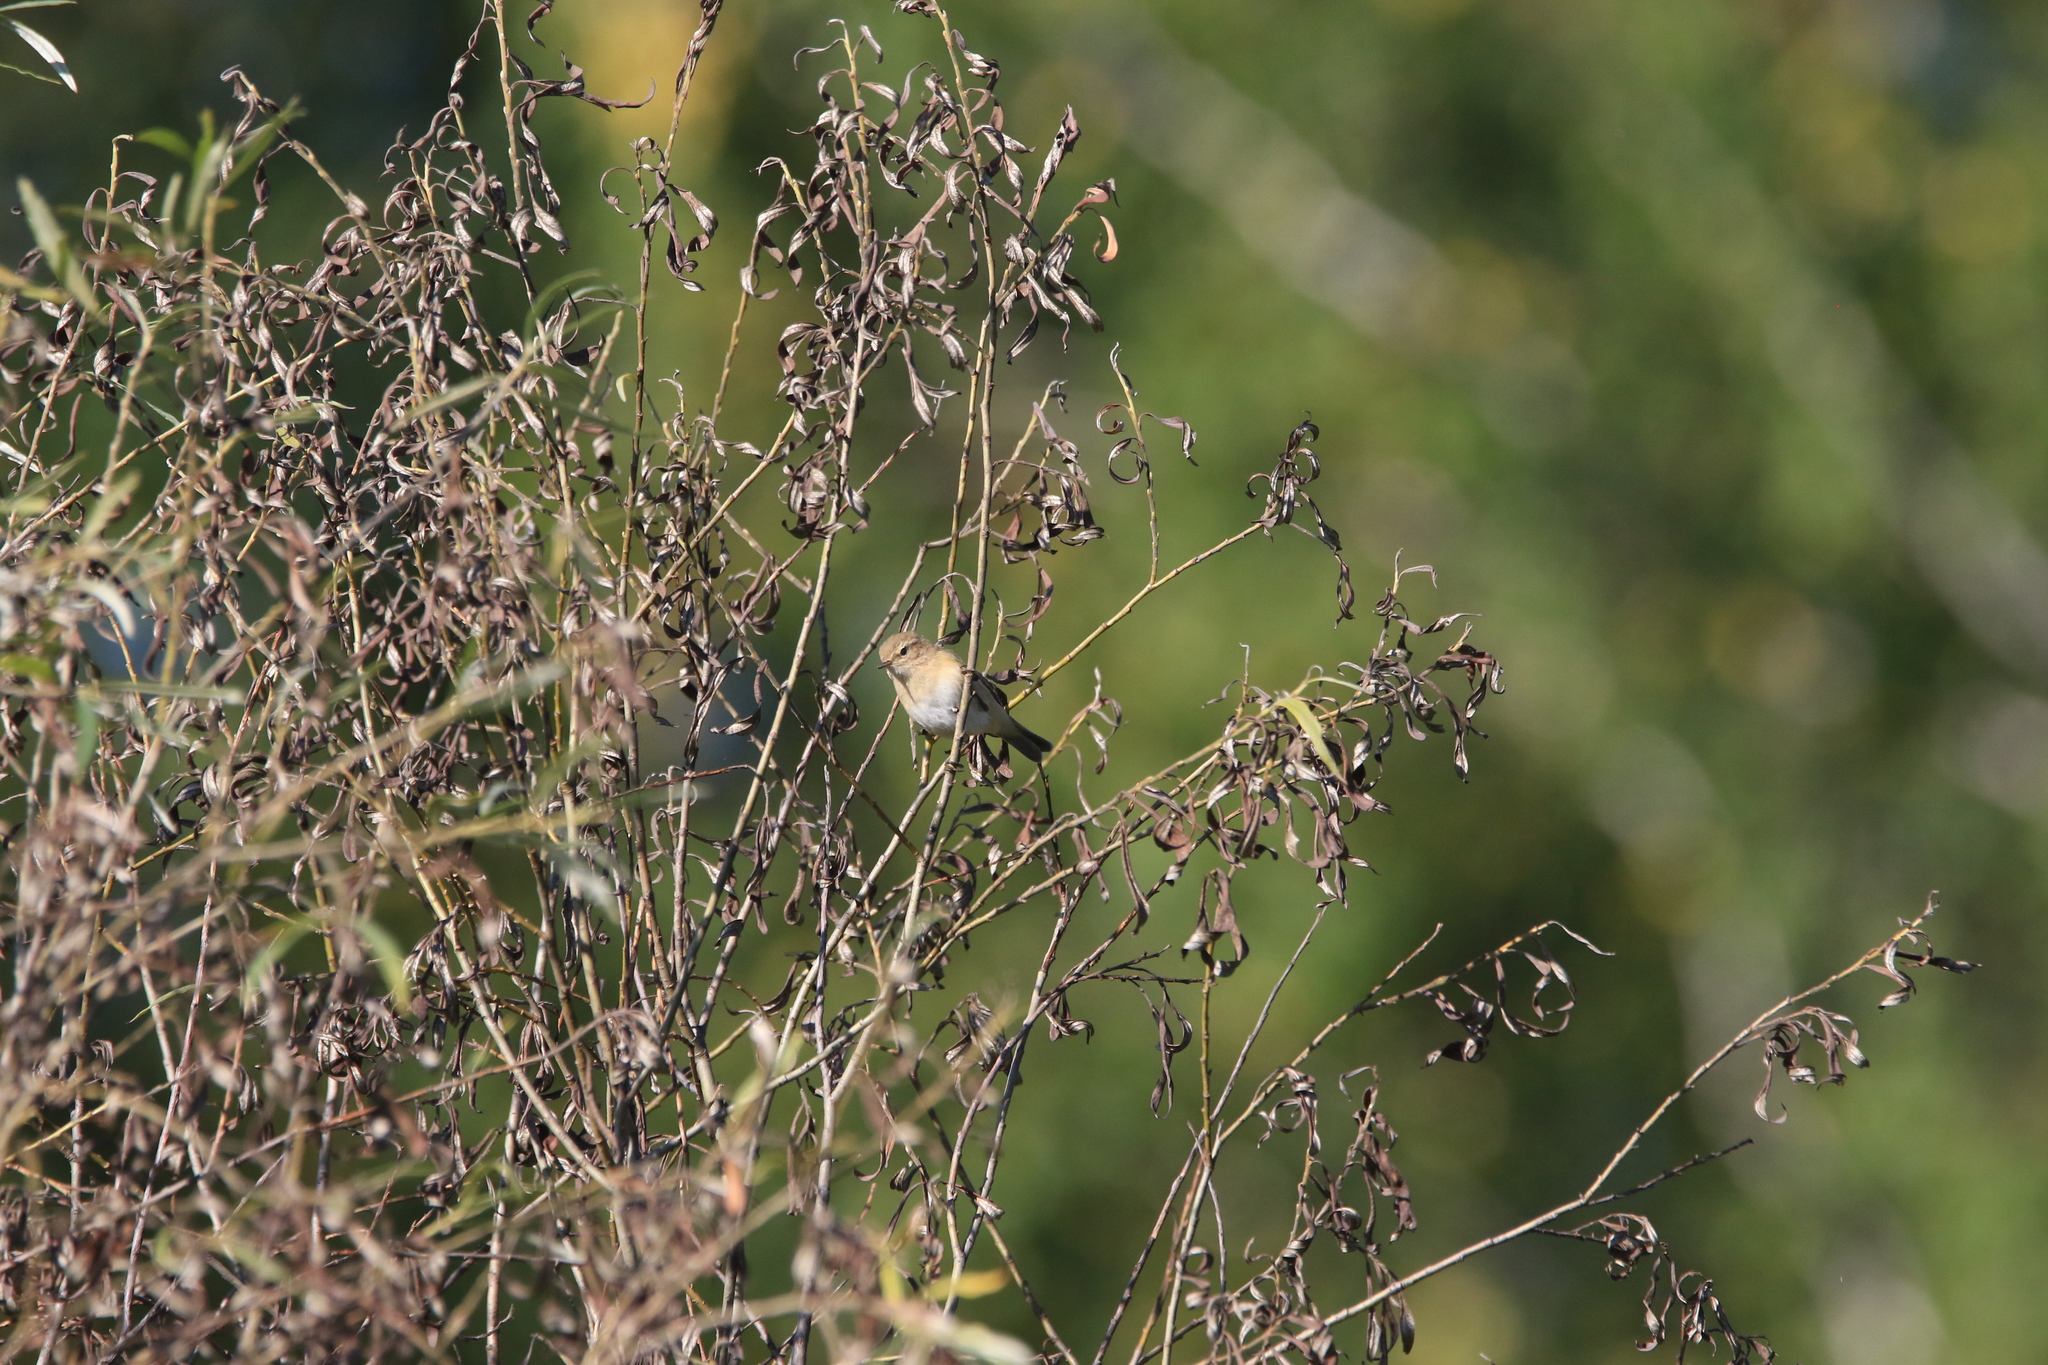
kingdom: Animalia
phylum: Chordata
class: Aves
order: Passeriformes
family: Phylloscopidae
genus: Phylloscopus
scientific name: Phylloscopus collybita
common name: Common chiffchaff
